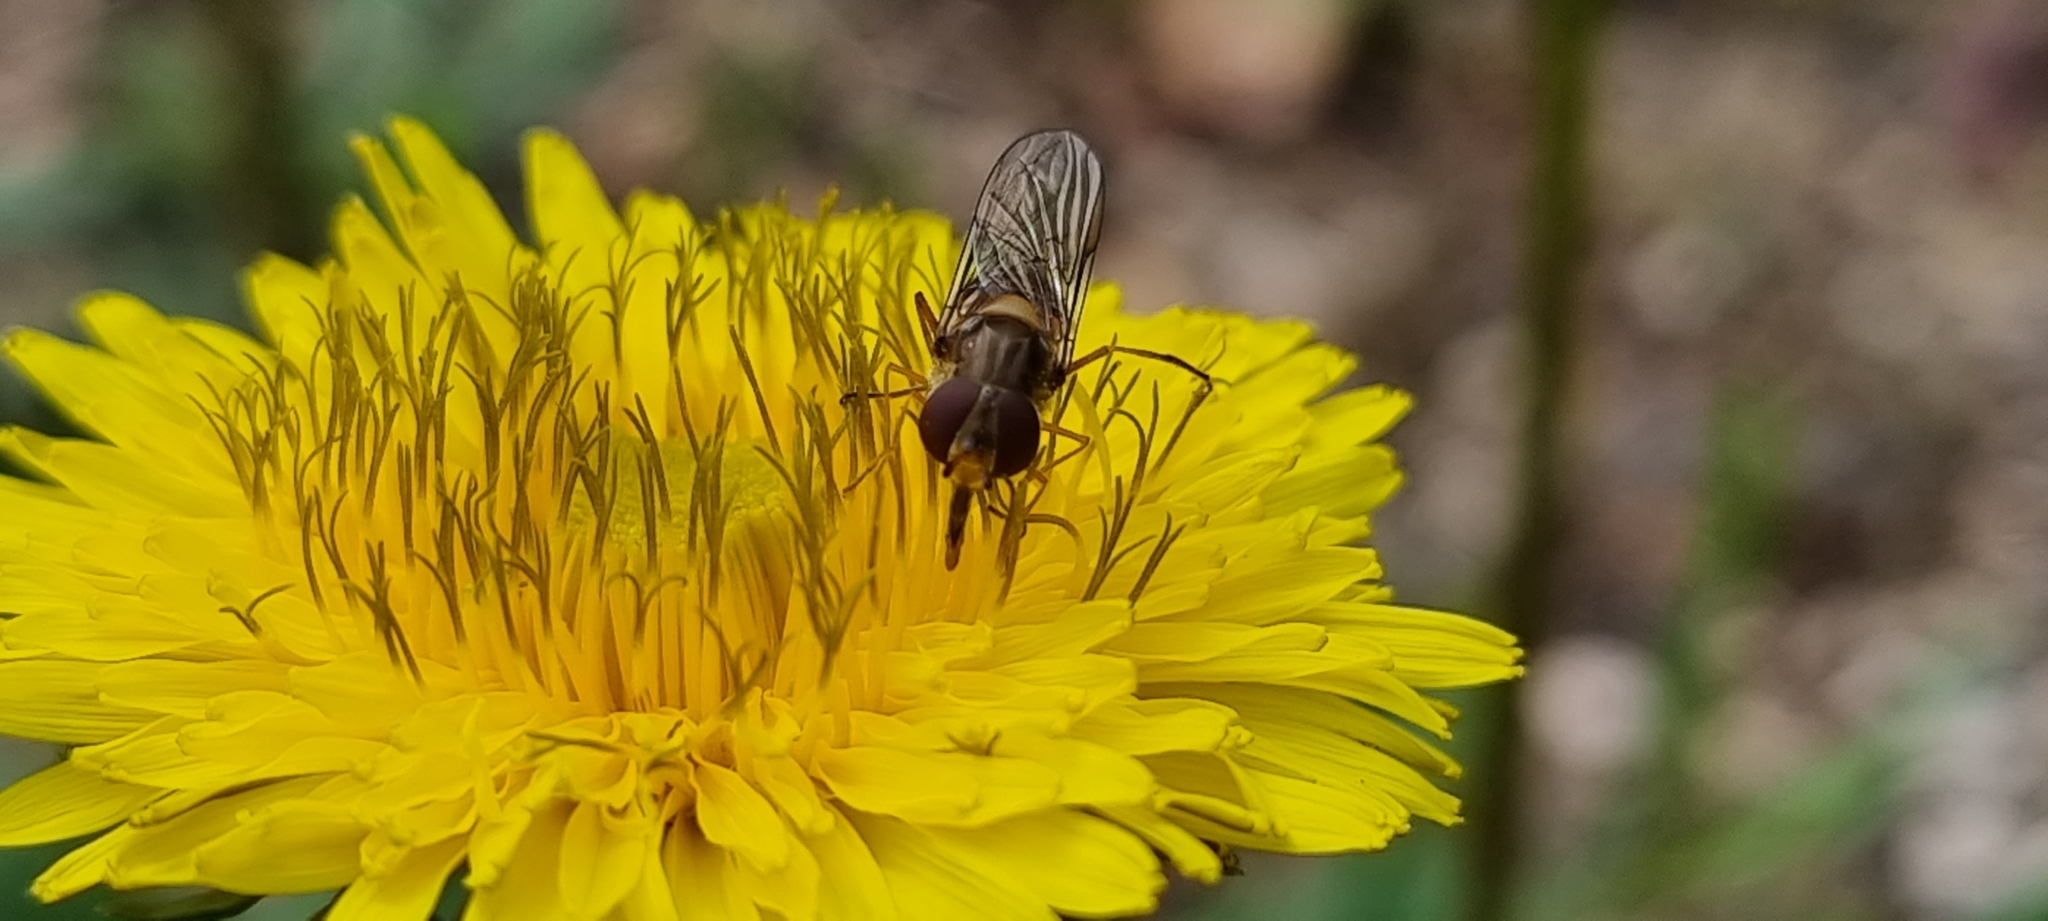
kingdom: Animalia
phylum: Arthropoda
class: Insecta
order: Diptera
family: Syrphidae
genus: Episyrphus
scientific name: Episyrphus balteatus
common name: Marmalade hoverfly
